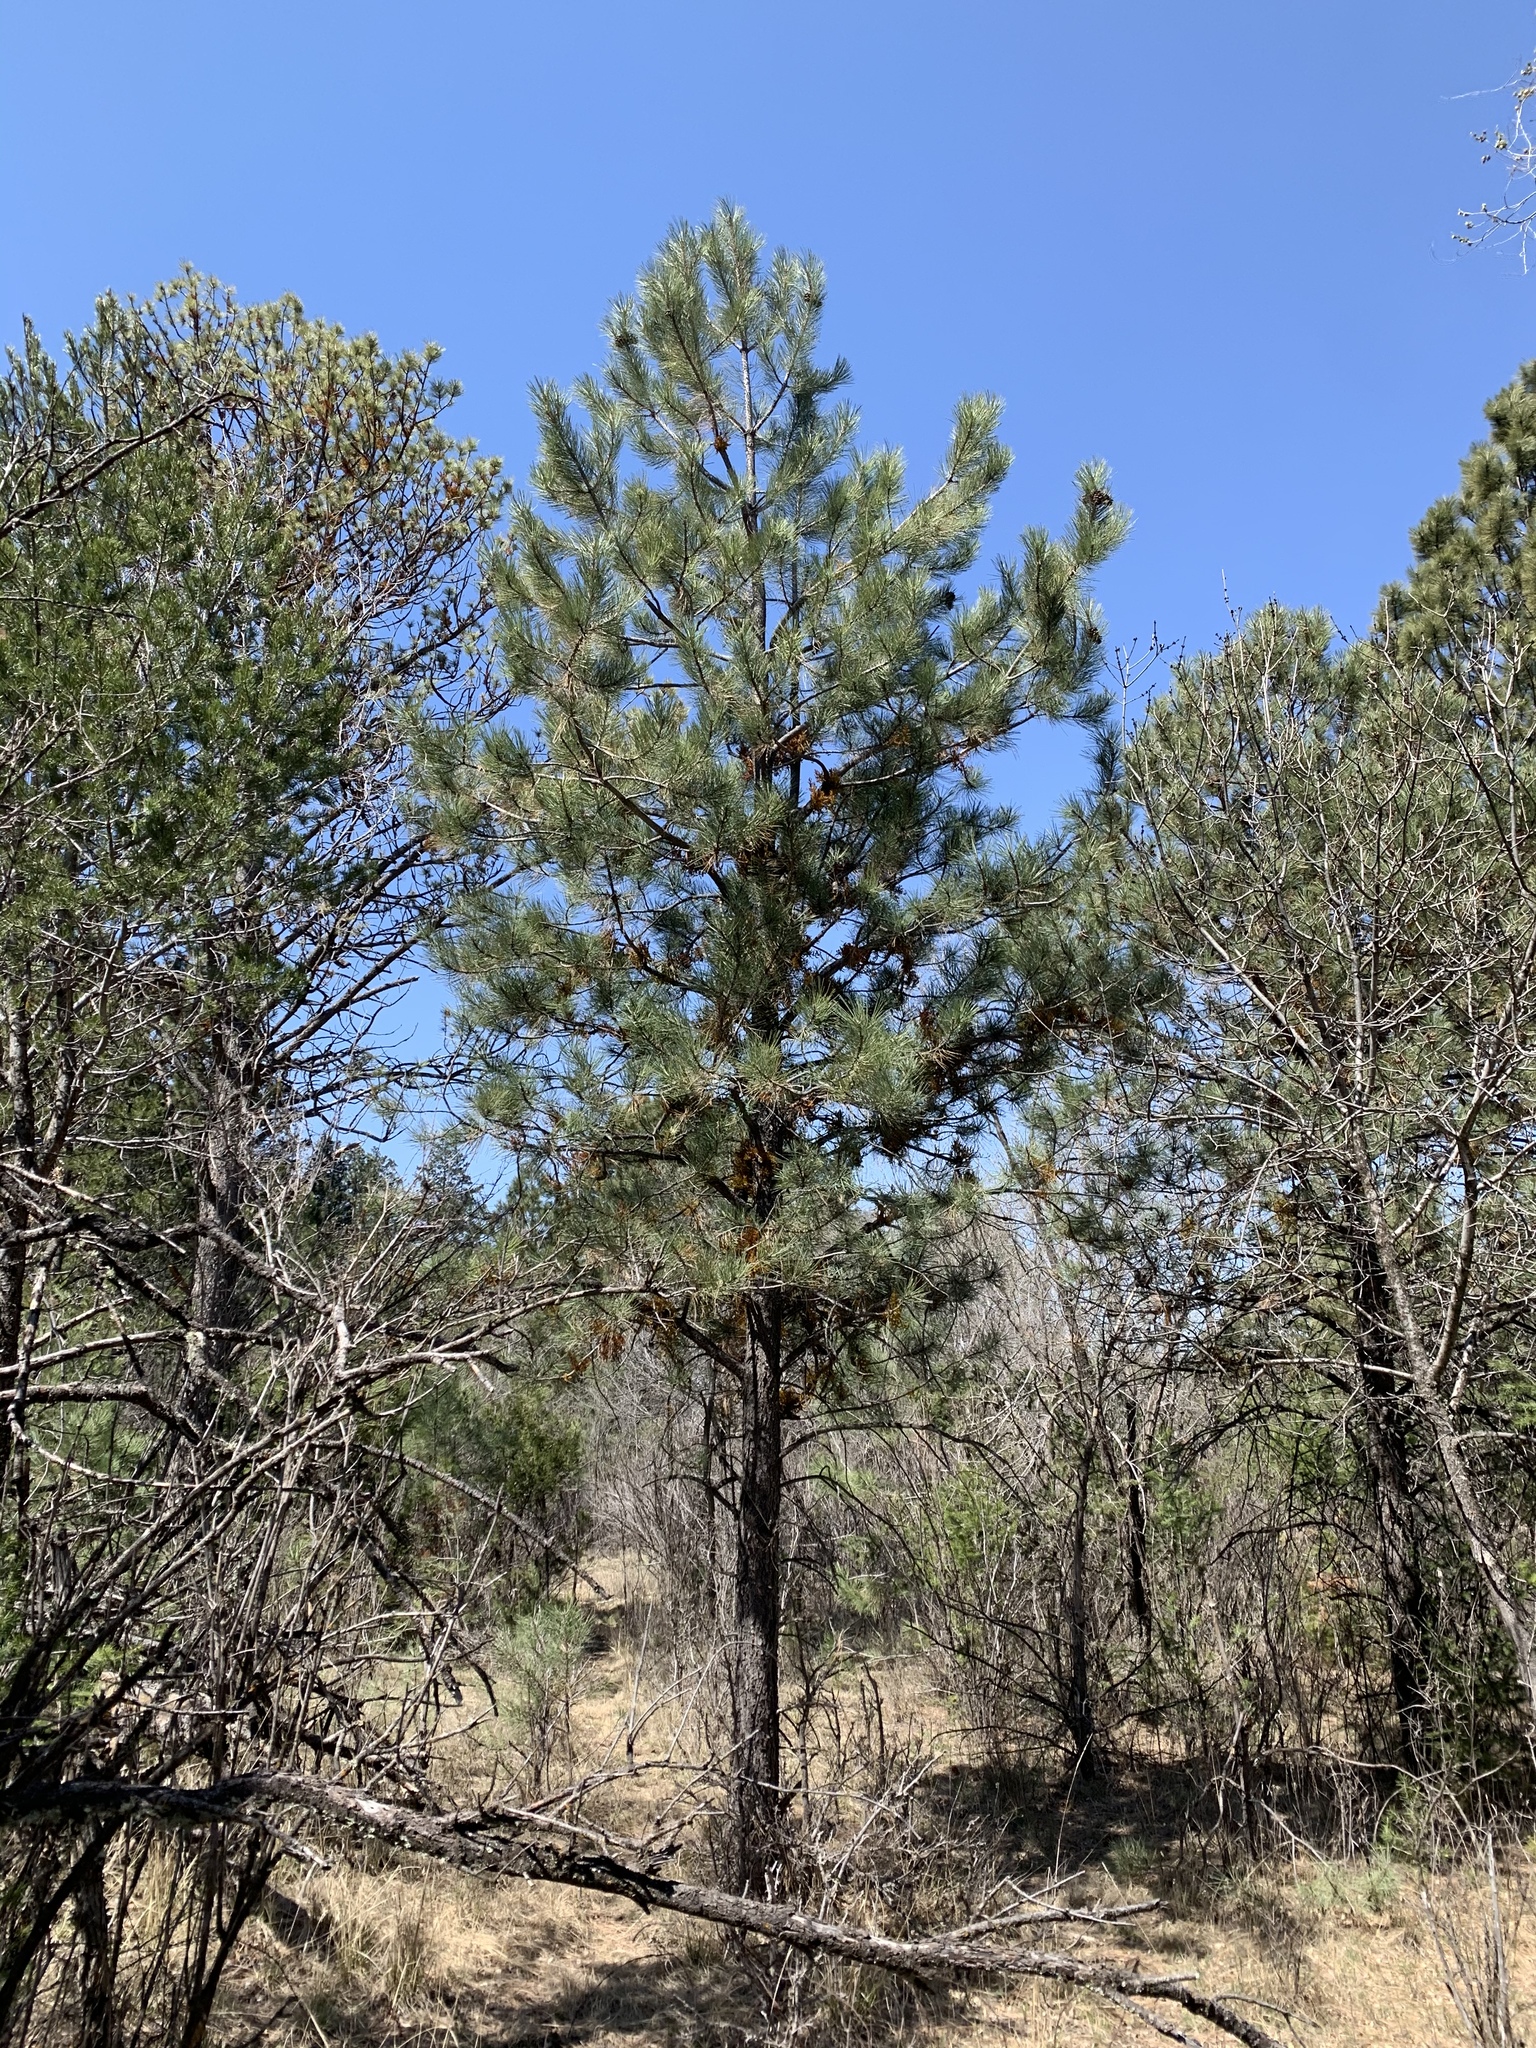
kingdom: Plantae
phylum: Tracheophyta
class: Pinopsida
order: Pinales
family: Pinaceae
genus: Pinus
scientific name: Pinus ponderosa
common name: Western yellow-pine
